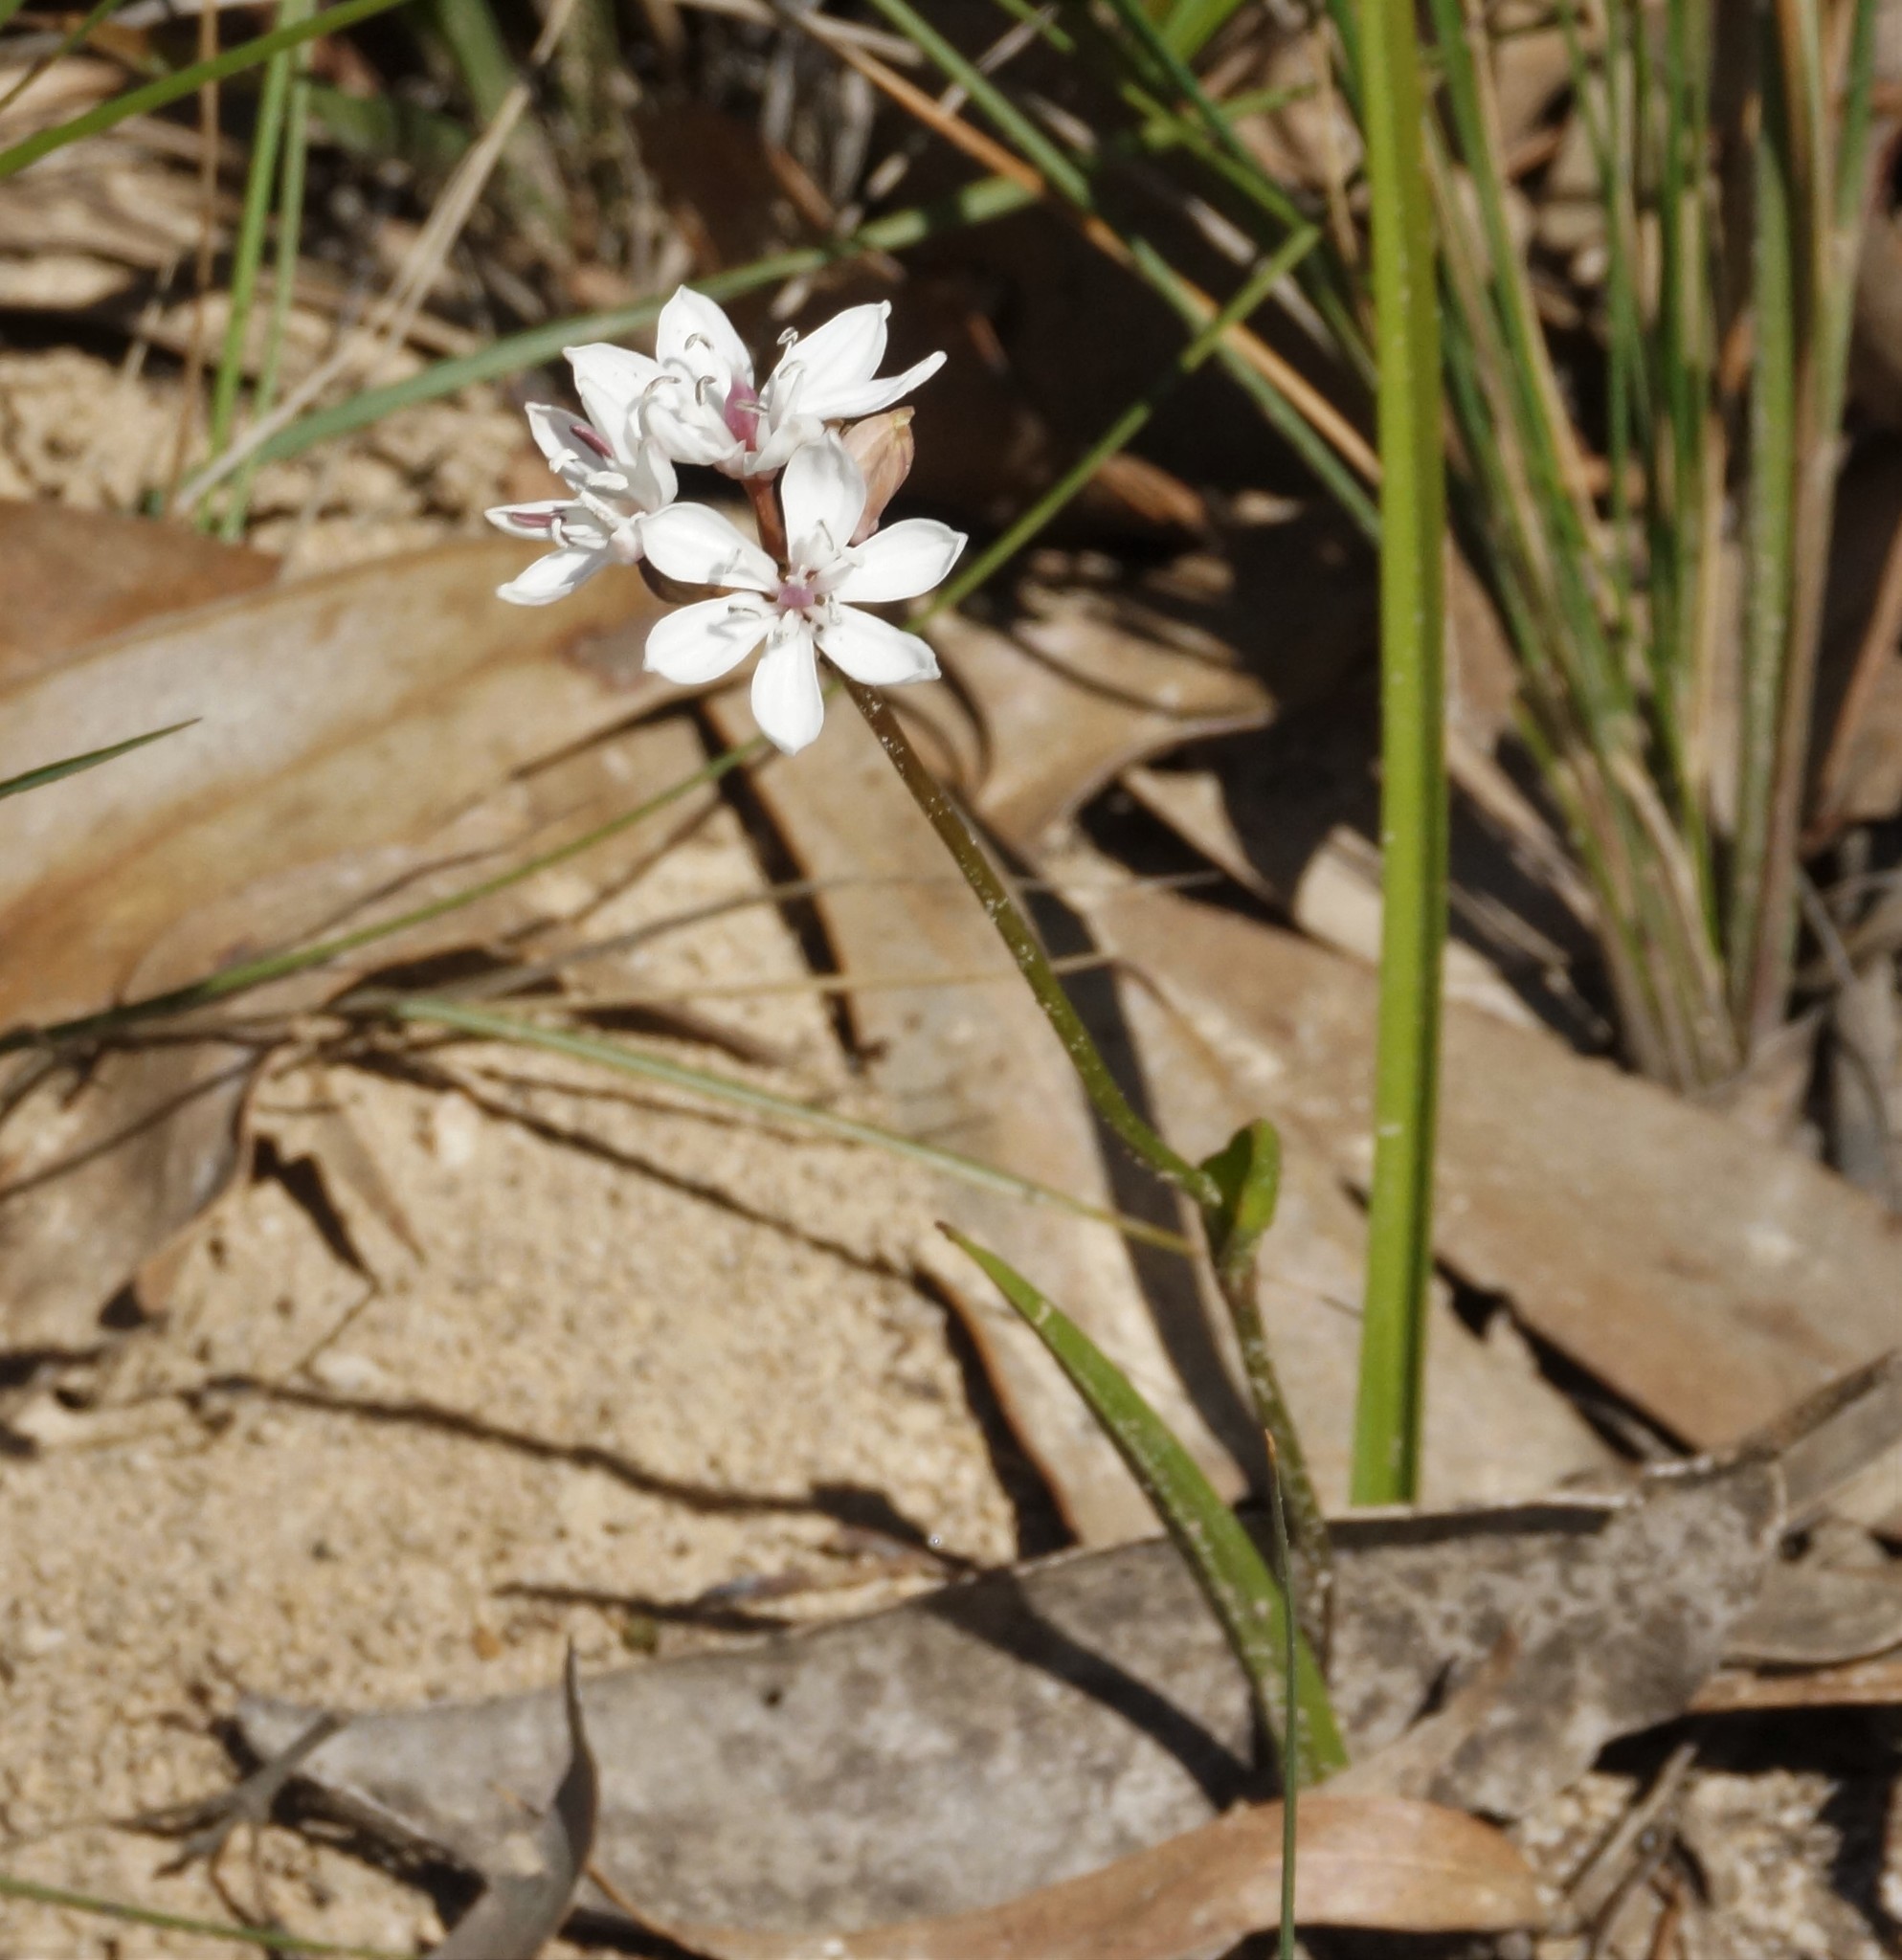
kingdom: Plantae
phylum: Tracheophyta
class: Liliopsida
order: Liliales
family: Colchicaceae
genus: Burchardia
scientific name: Burchardia umbellata
